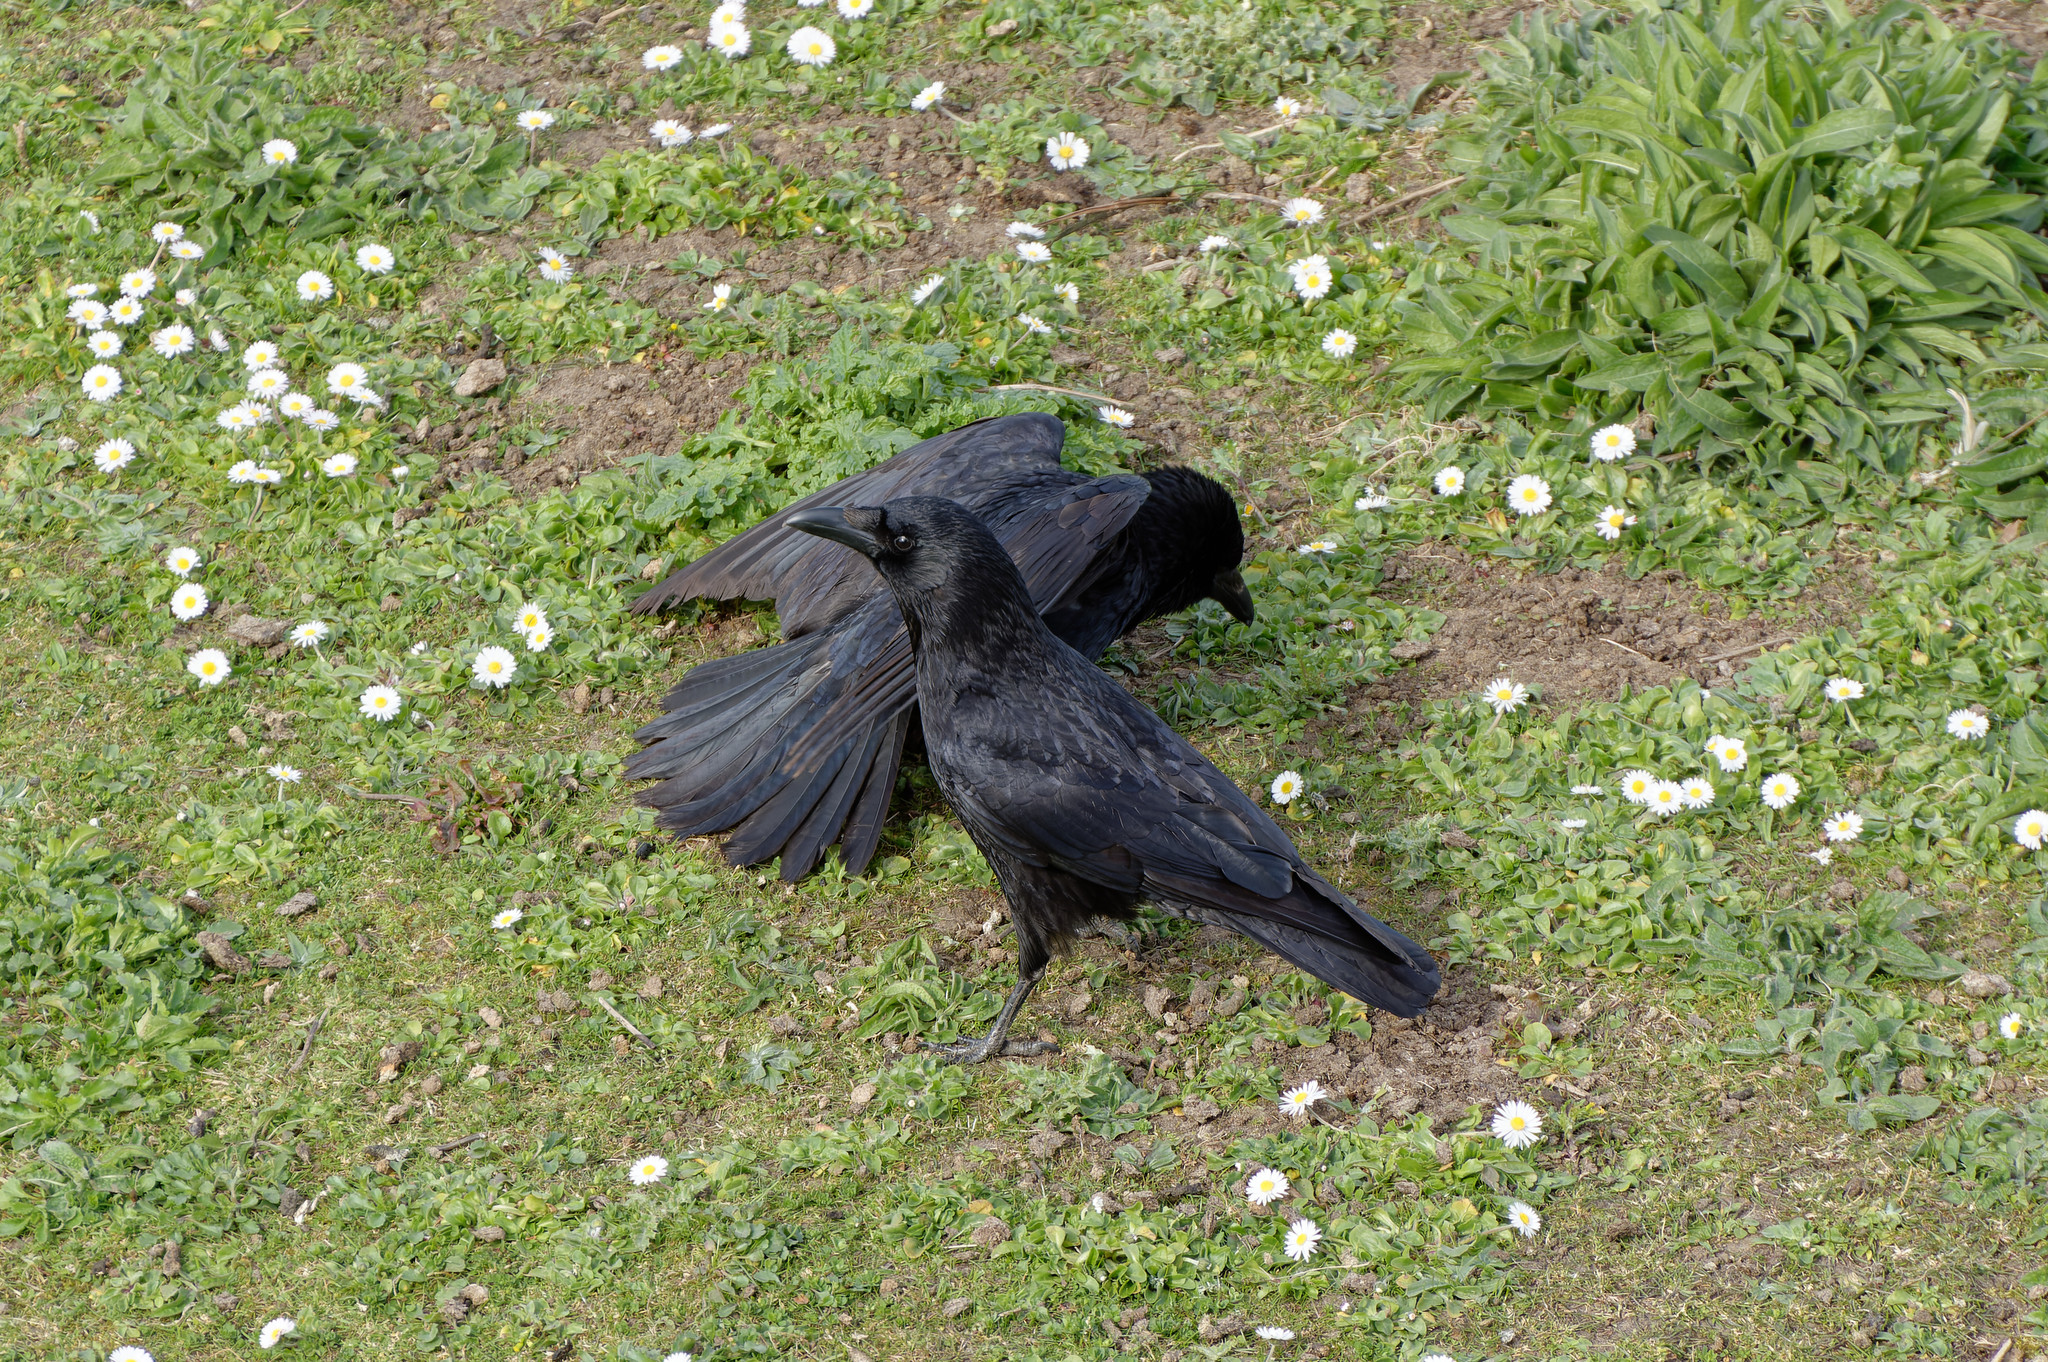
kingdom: Animalia
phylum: Chordata
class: Aves
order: Passeriformes
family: Corvidae
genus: Corvus
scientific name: Corvus corone
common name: Carrion crow
